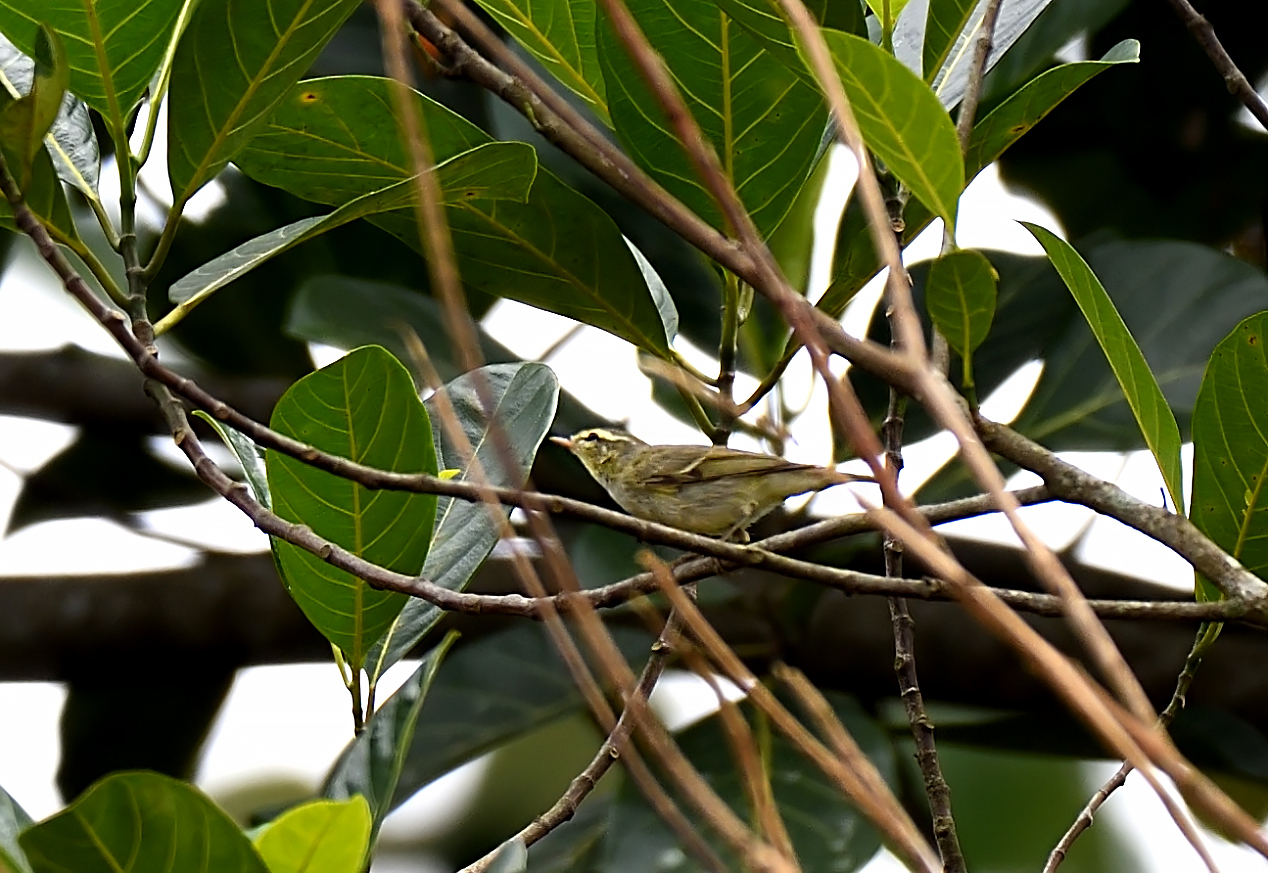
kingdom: Animalia
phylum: Chordata
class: Aves
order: Passeriformes
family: Phylloscopidae
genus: Phylloscopus
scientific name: Phylloscopus nitidus
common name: Green warbler
